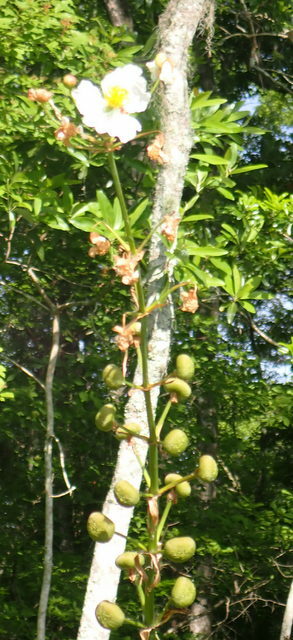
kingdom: Plantae
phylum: Tracheophyta
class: Liliopsida
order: Alismatales
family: Alismataceae
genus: Sagittaria
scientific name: Sagittaria lancifolia
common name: Lance-leaf arrowhead
